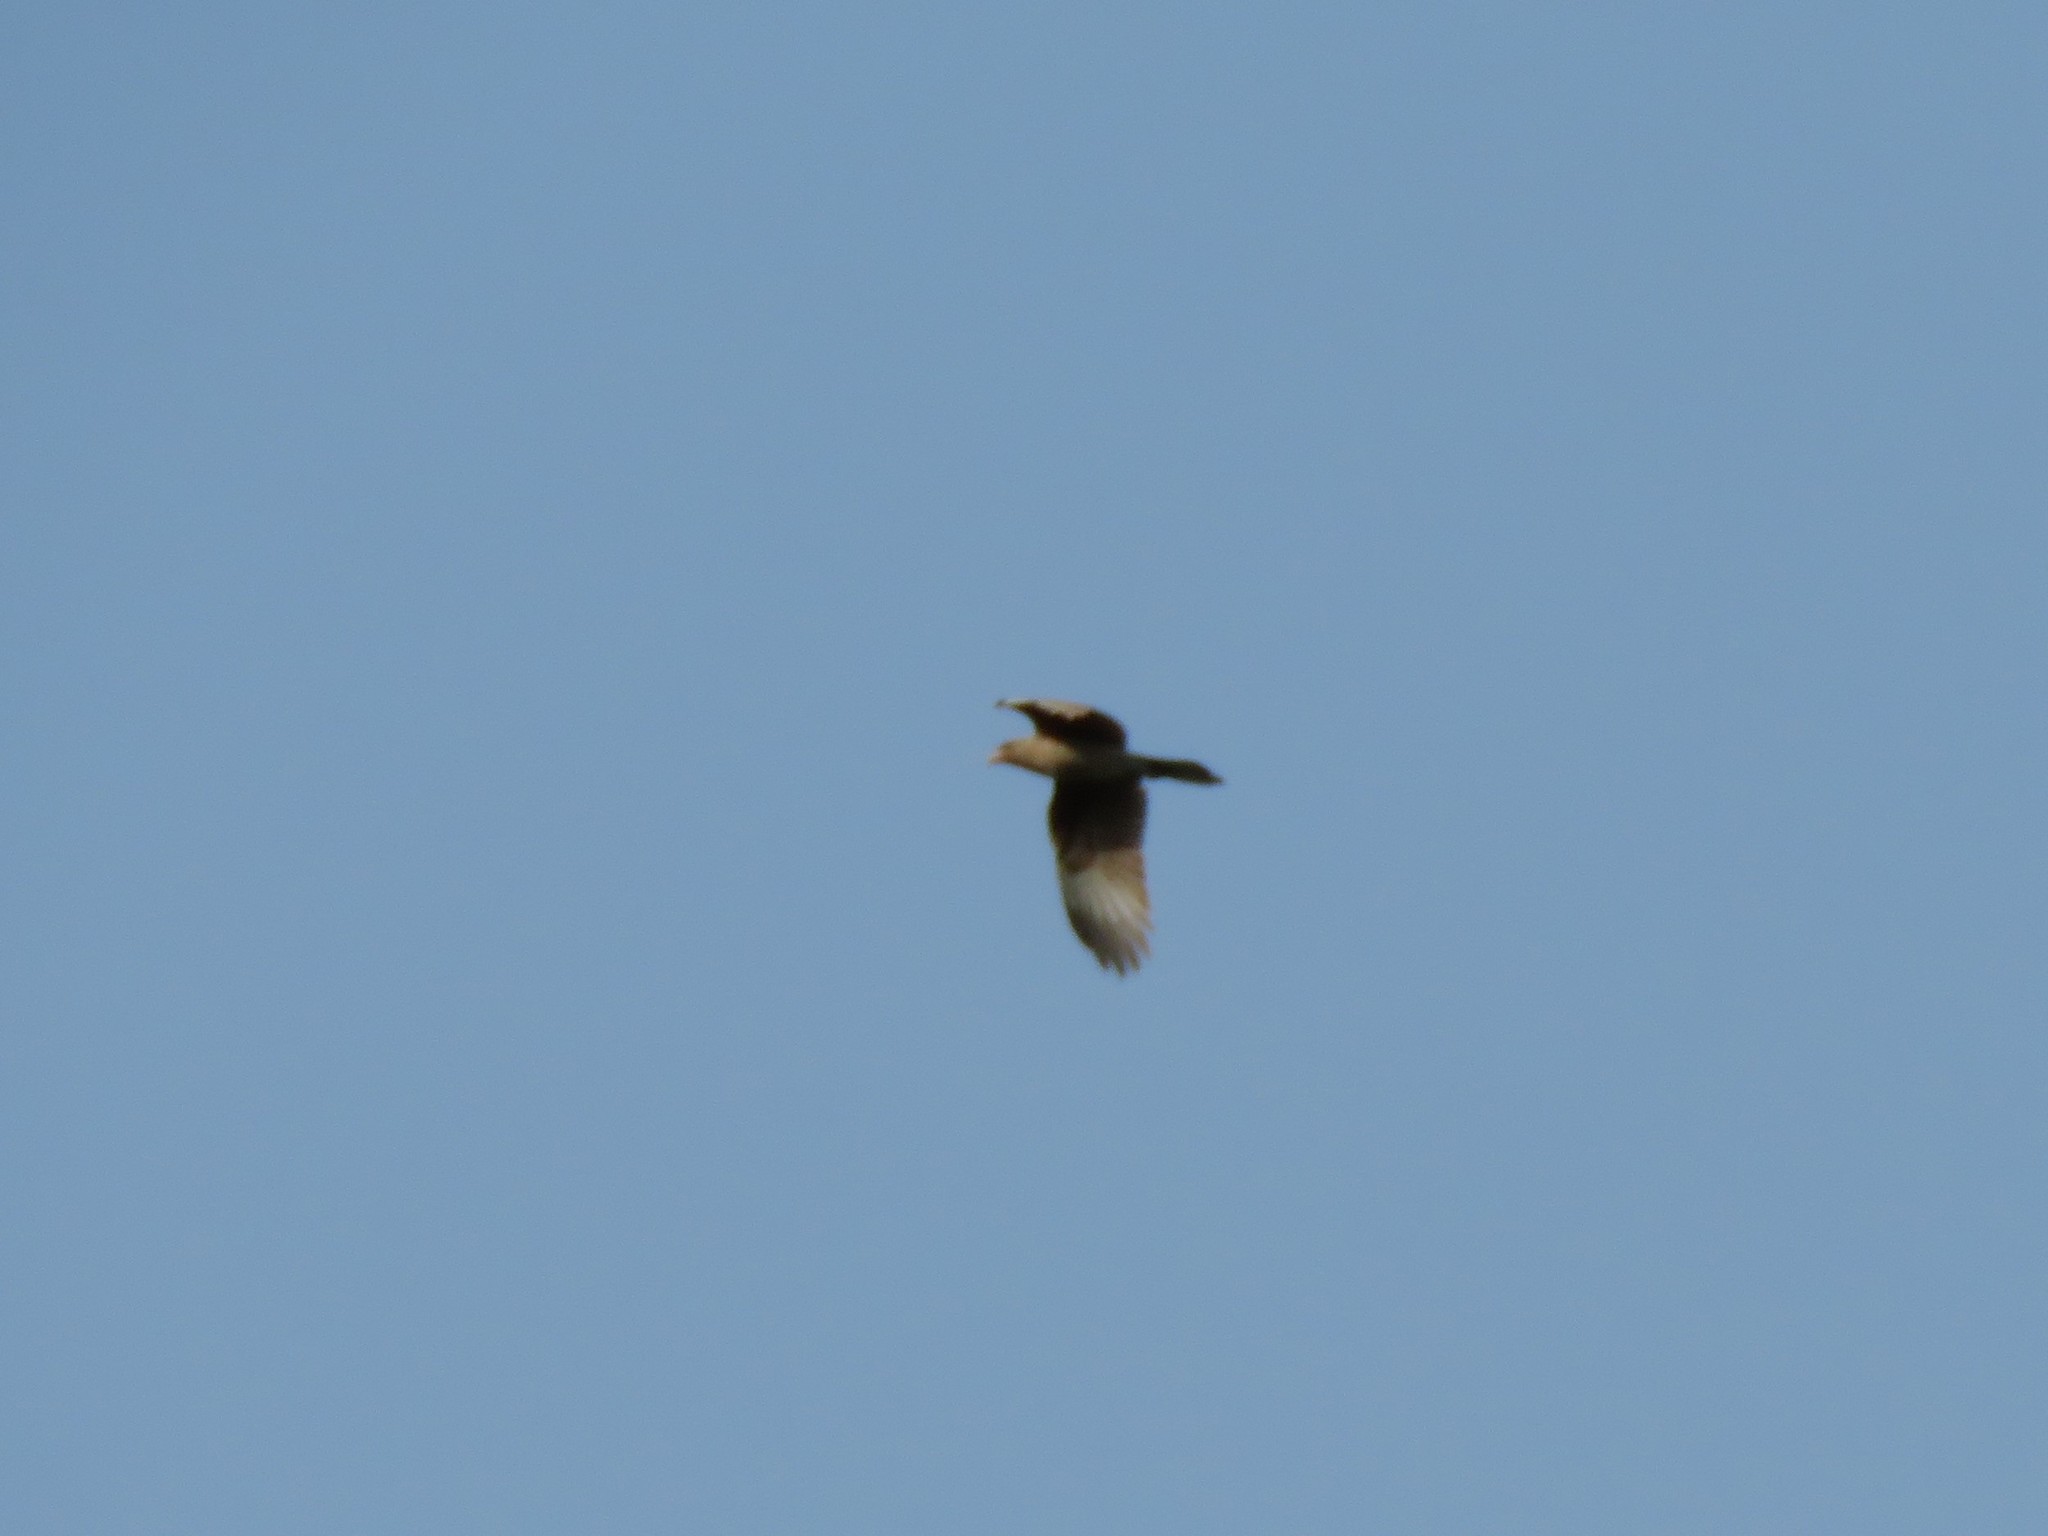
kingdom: Animalia
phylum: Chordata
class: Aves
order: Falconiformes
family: Falconidae
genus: Daptrius
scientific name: Daptrius
